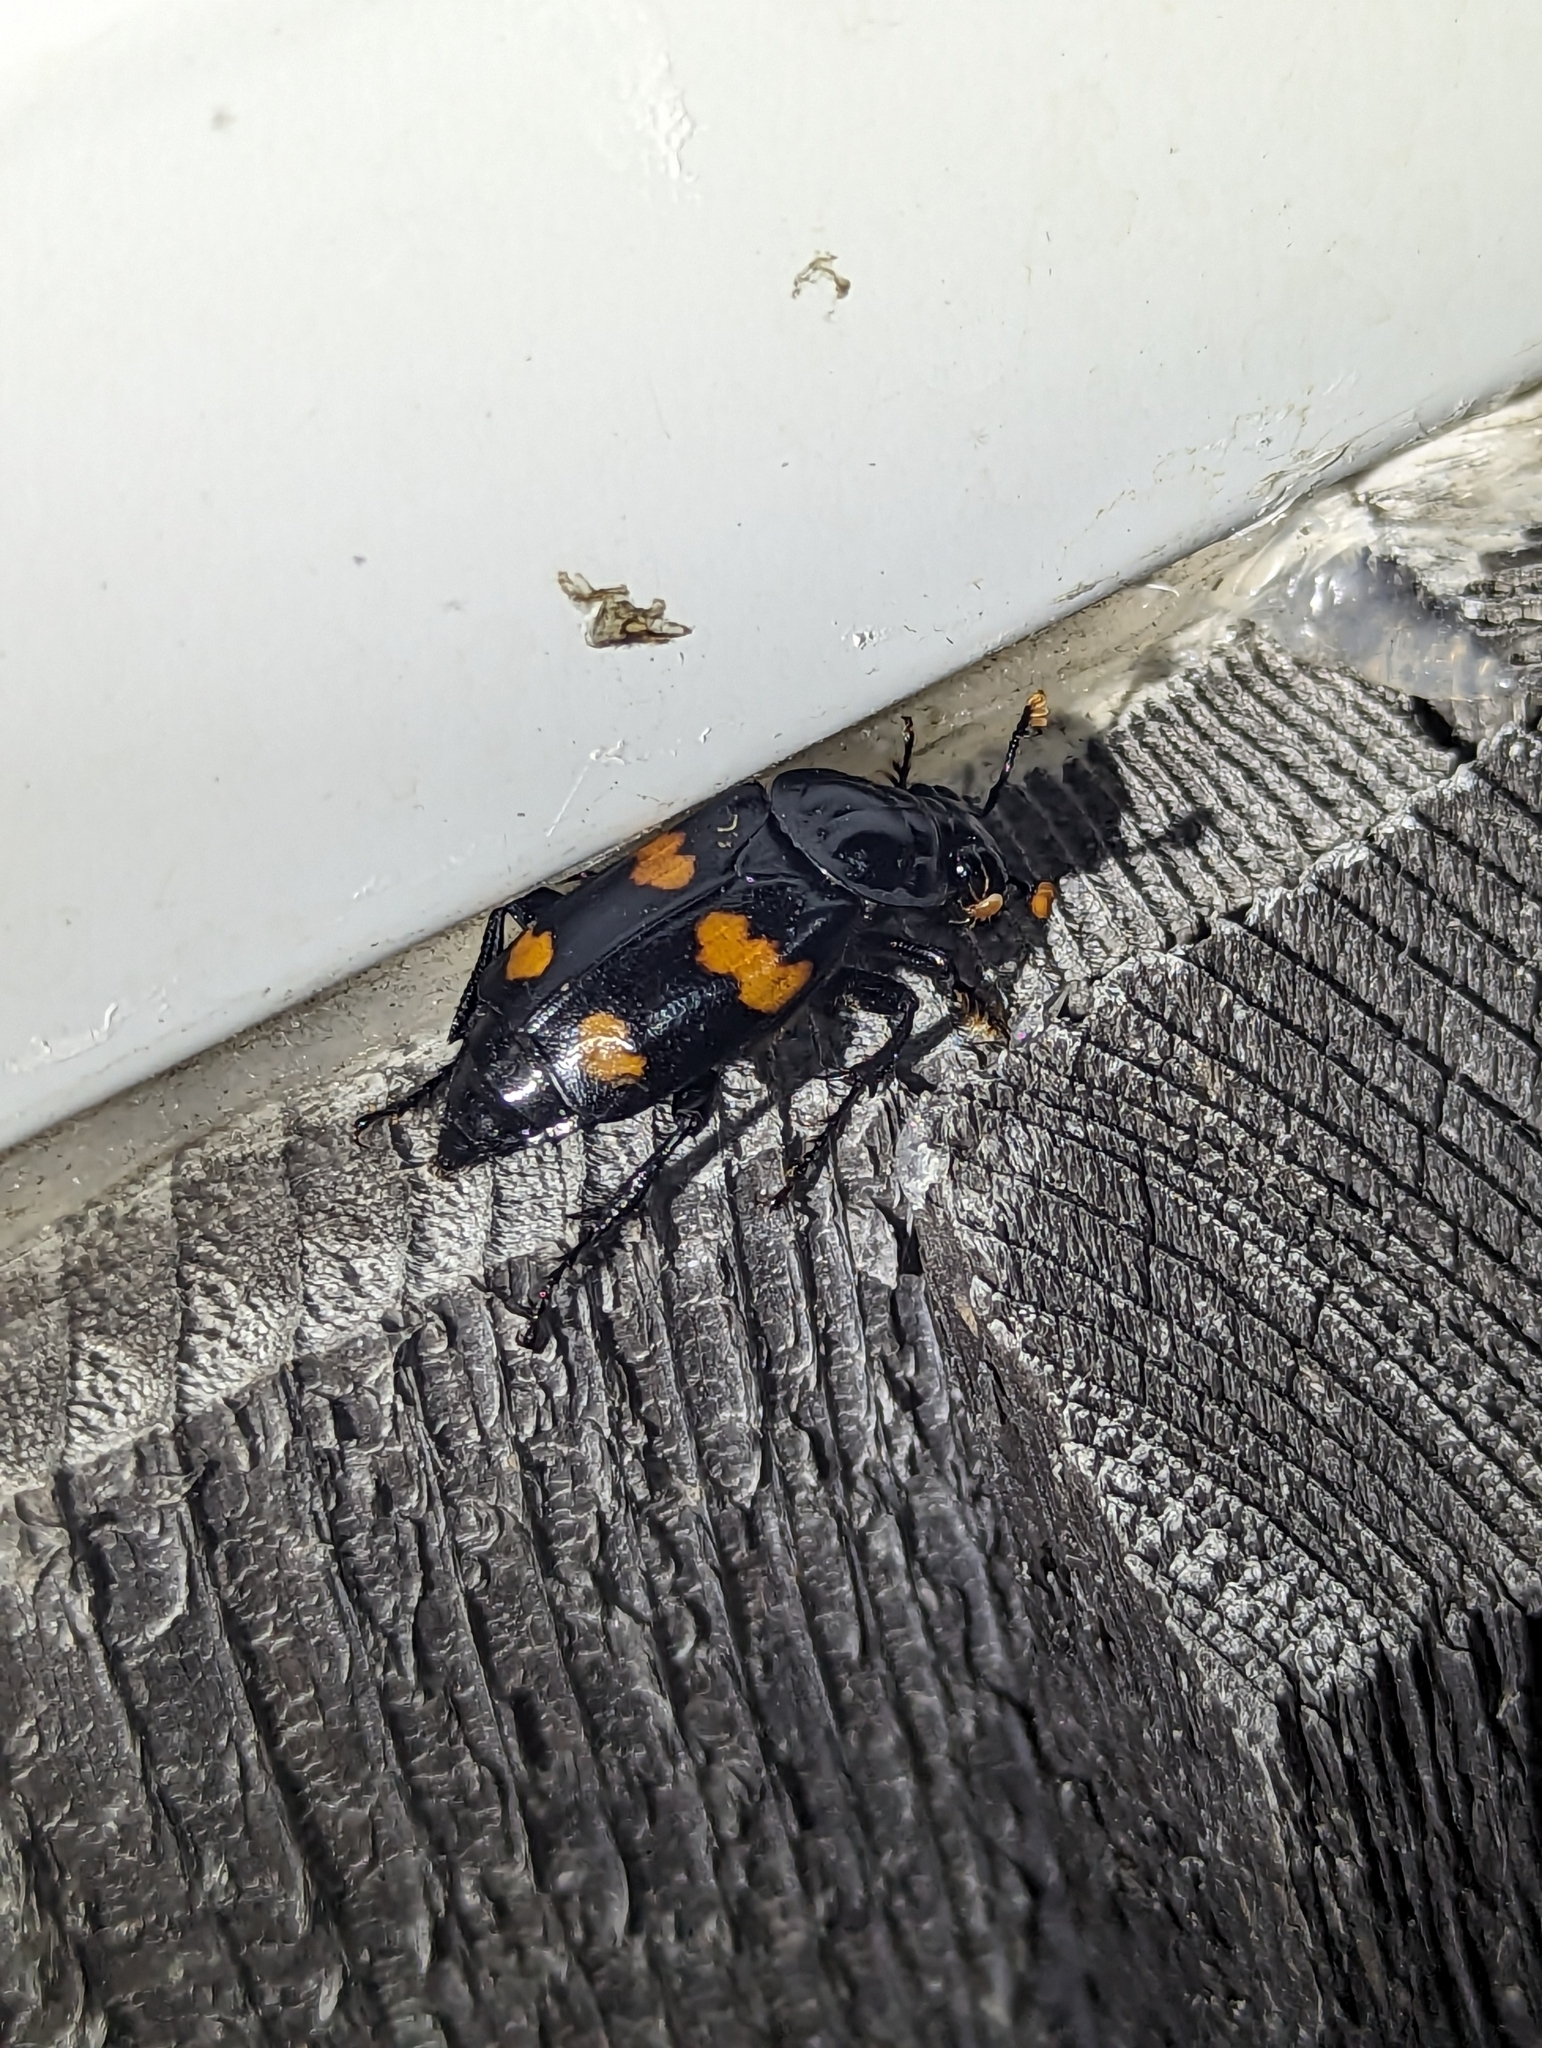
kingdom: Animalia
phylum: Arthropoda
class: Insecta
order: Coleoptera
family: Staphylinidae
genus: Nicrophorus
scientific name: Nicrophorus orbicollis
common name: Roundneck sexton beetle
